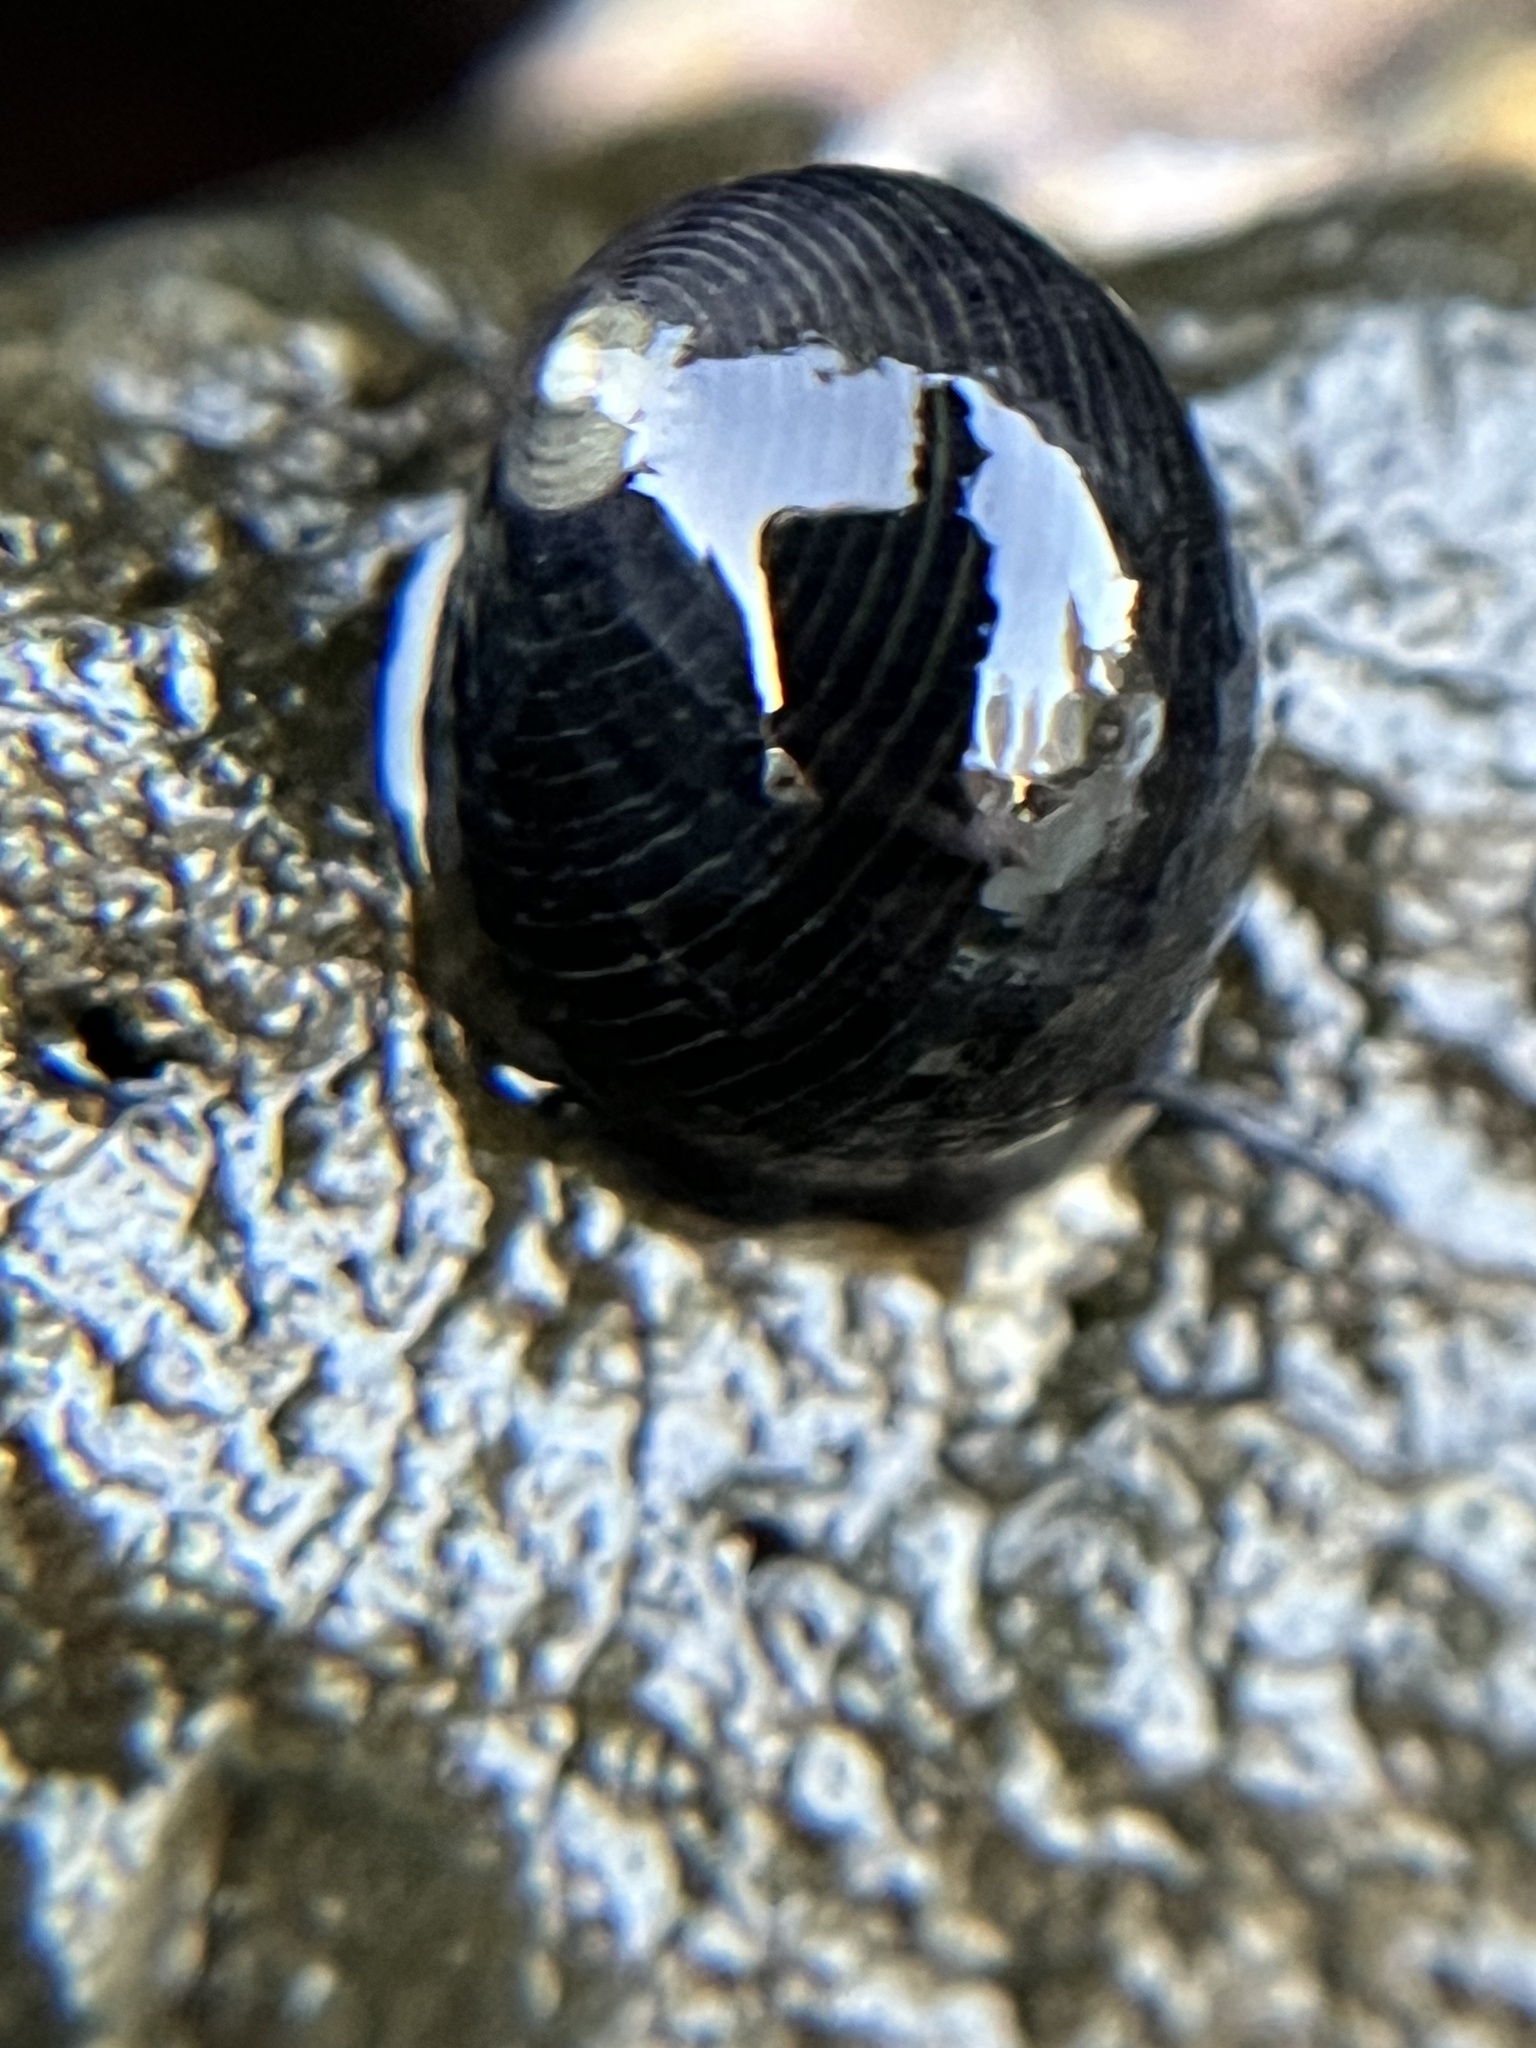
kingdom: Animalia
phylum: Mollusca
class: Gastropoda
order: Cycloneritida
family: Neritidae
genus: Nerita
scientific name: Nerita picea
